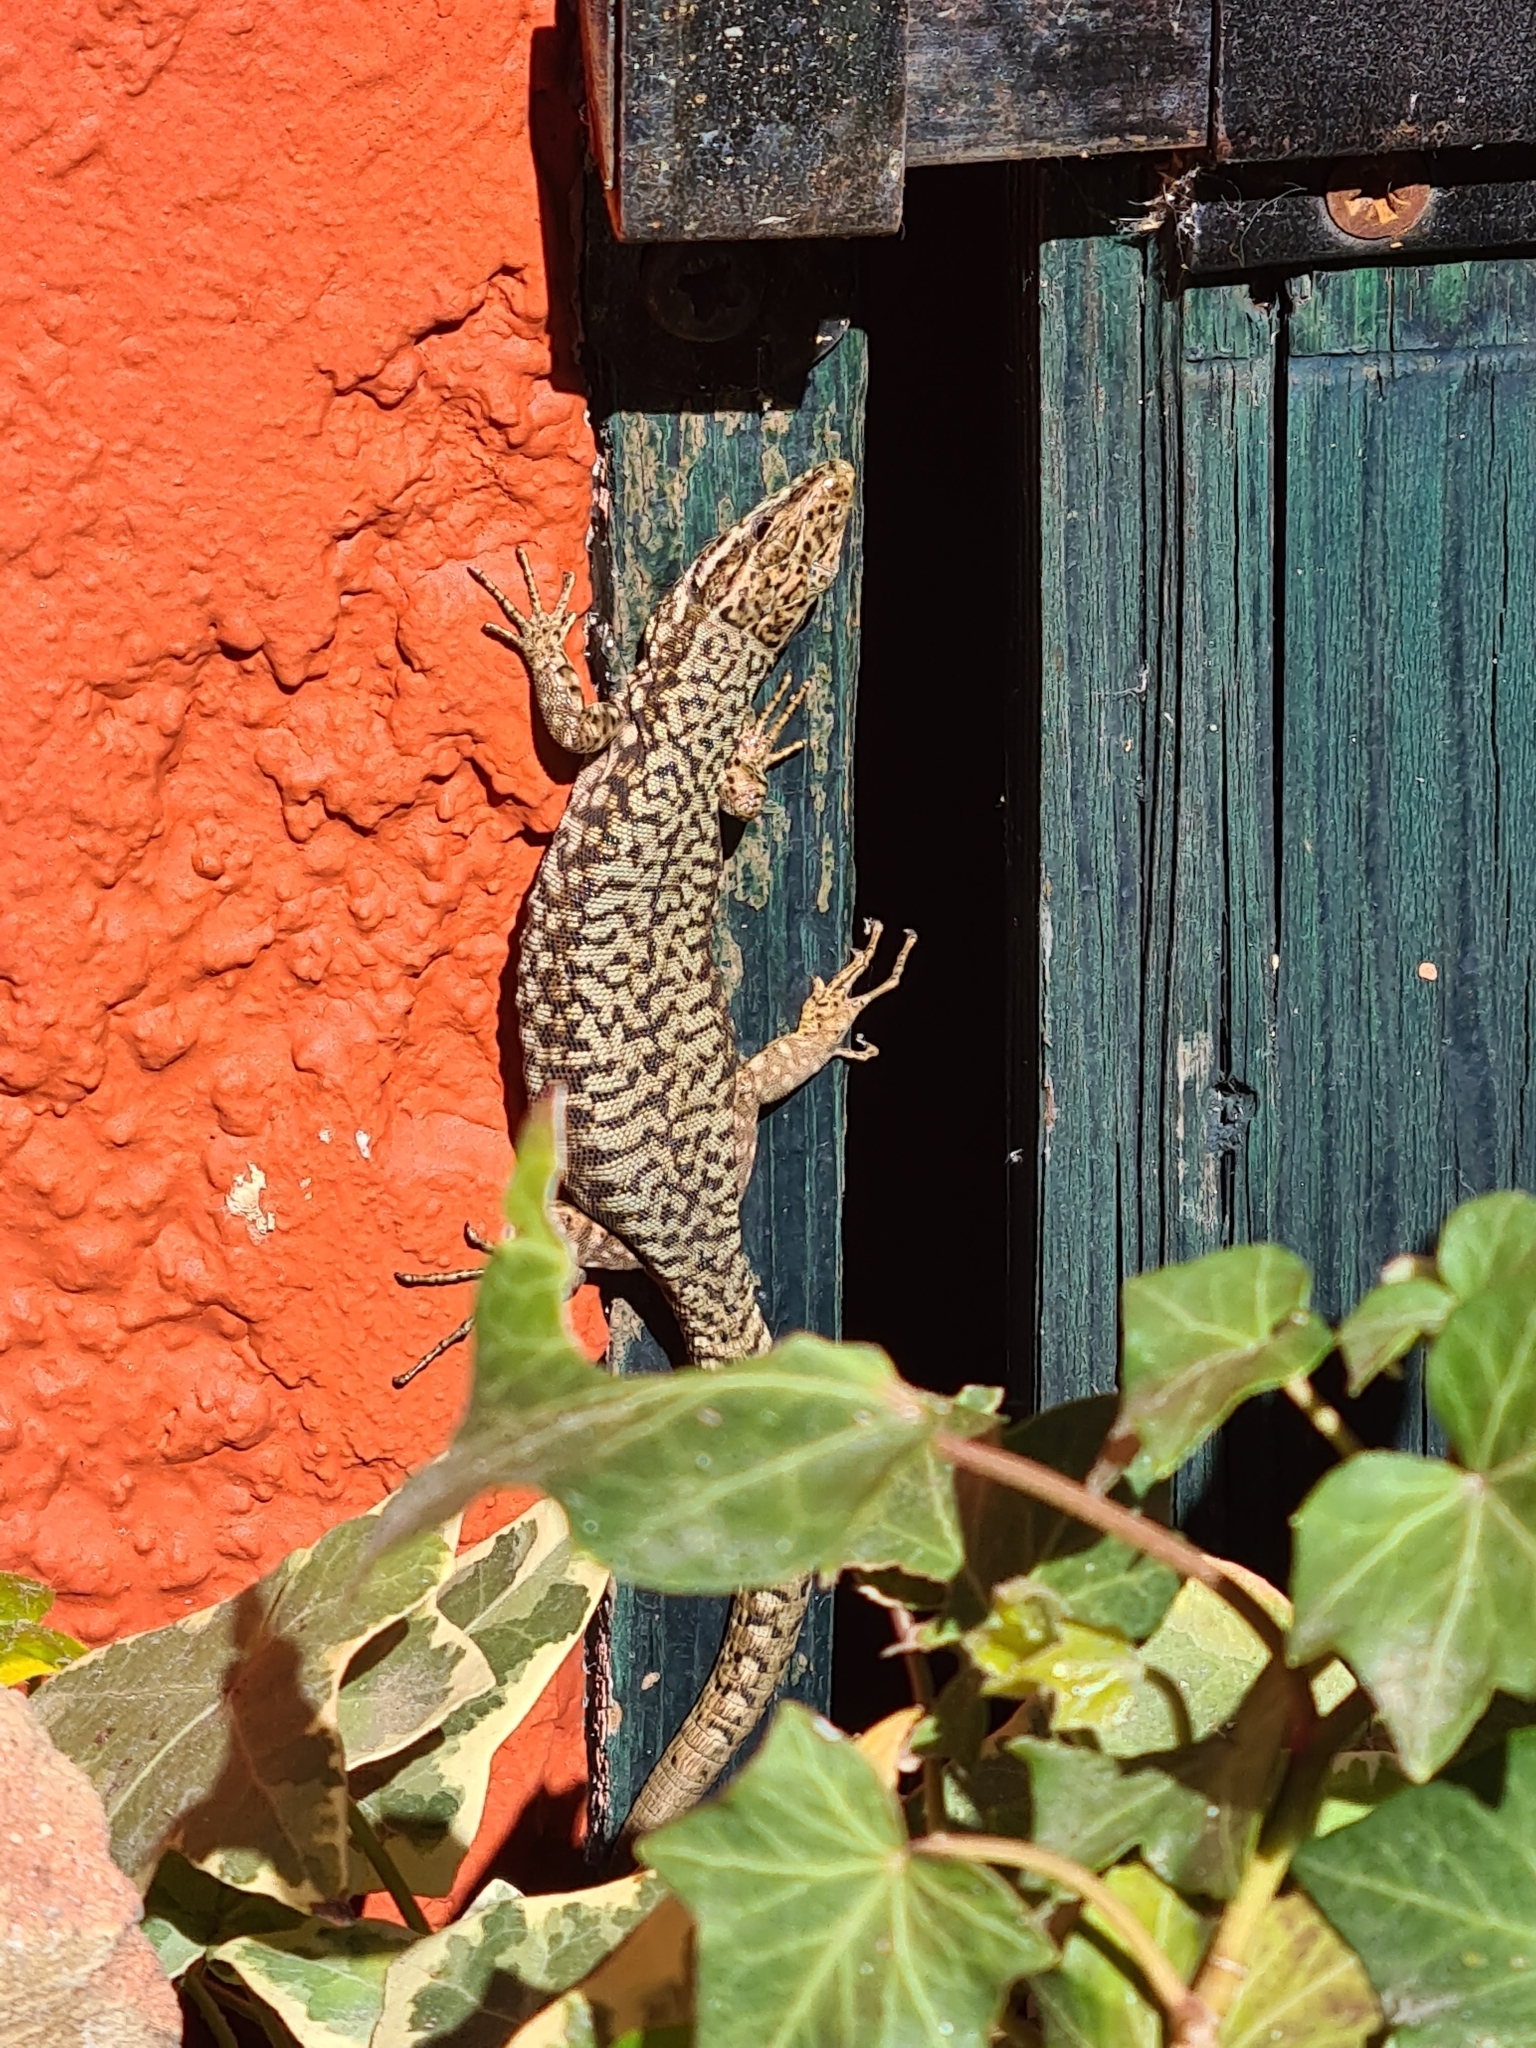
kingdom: Animalia
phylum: Chordata
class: Squamata
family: Lacertidae
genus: Podarcis
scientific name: Podarcis muralis
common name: Common wall lizard
